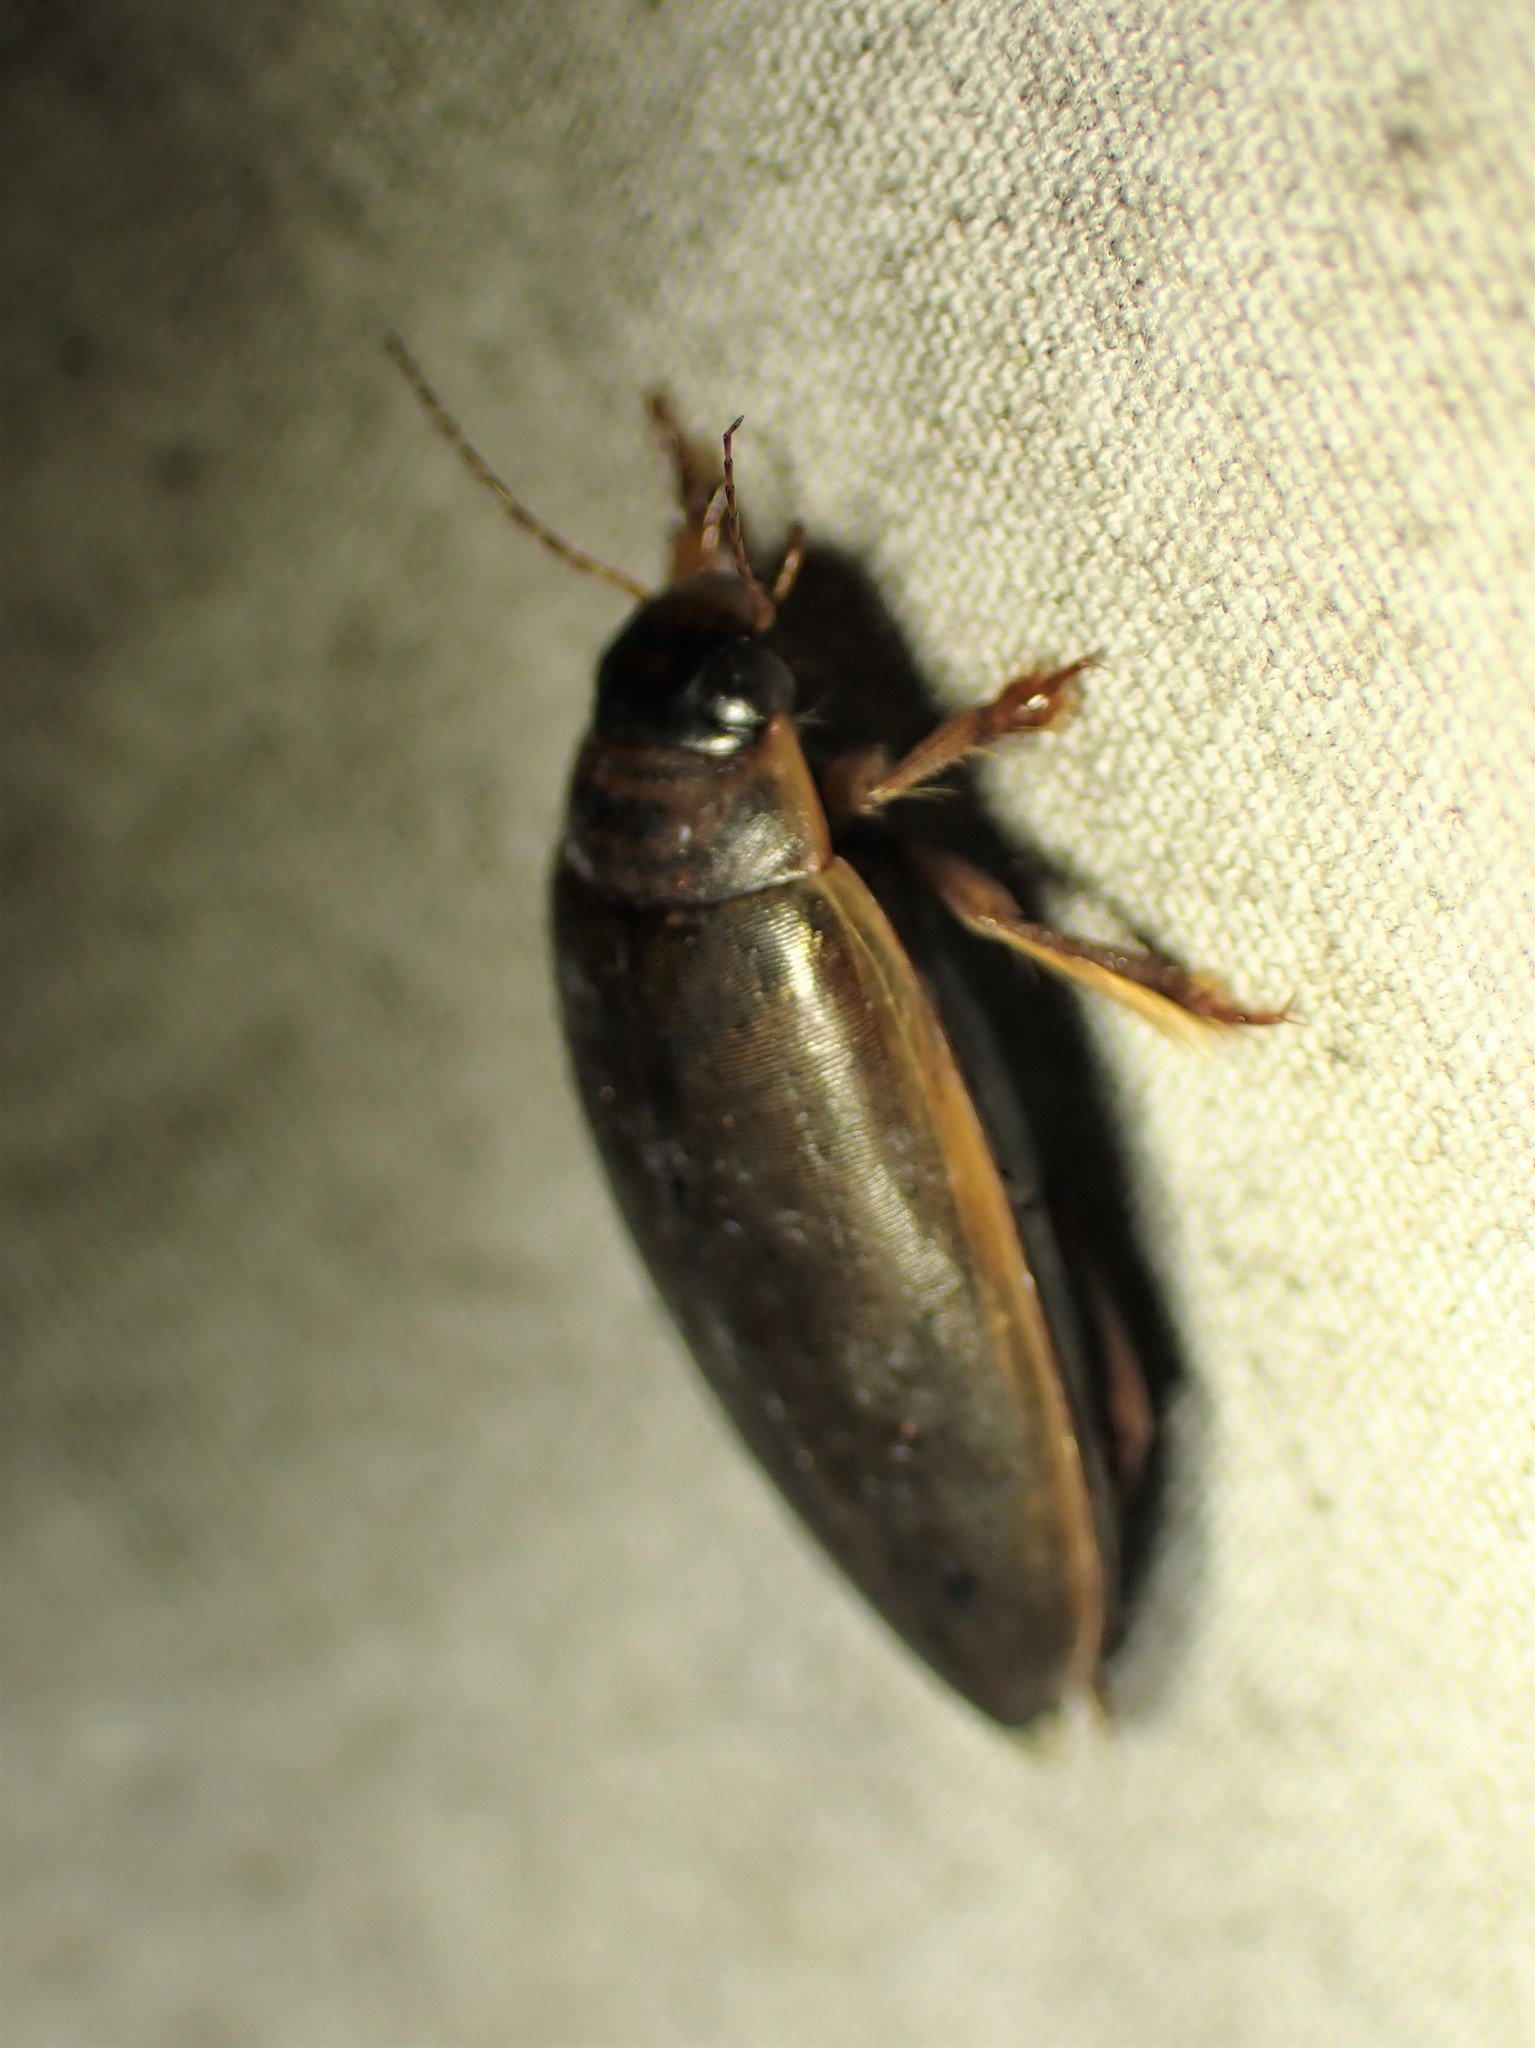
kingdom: Animalia
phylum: Arthropoda
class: Insecta
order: Coleoptera
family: Dytiscidae
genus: Colymbetes
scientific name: Colymbetes sculptilis
